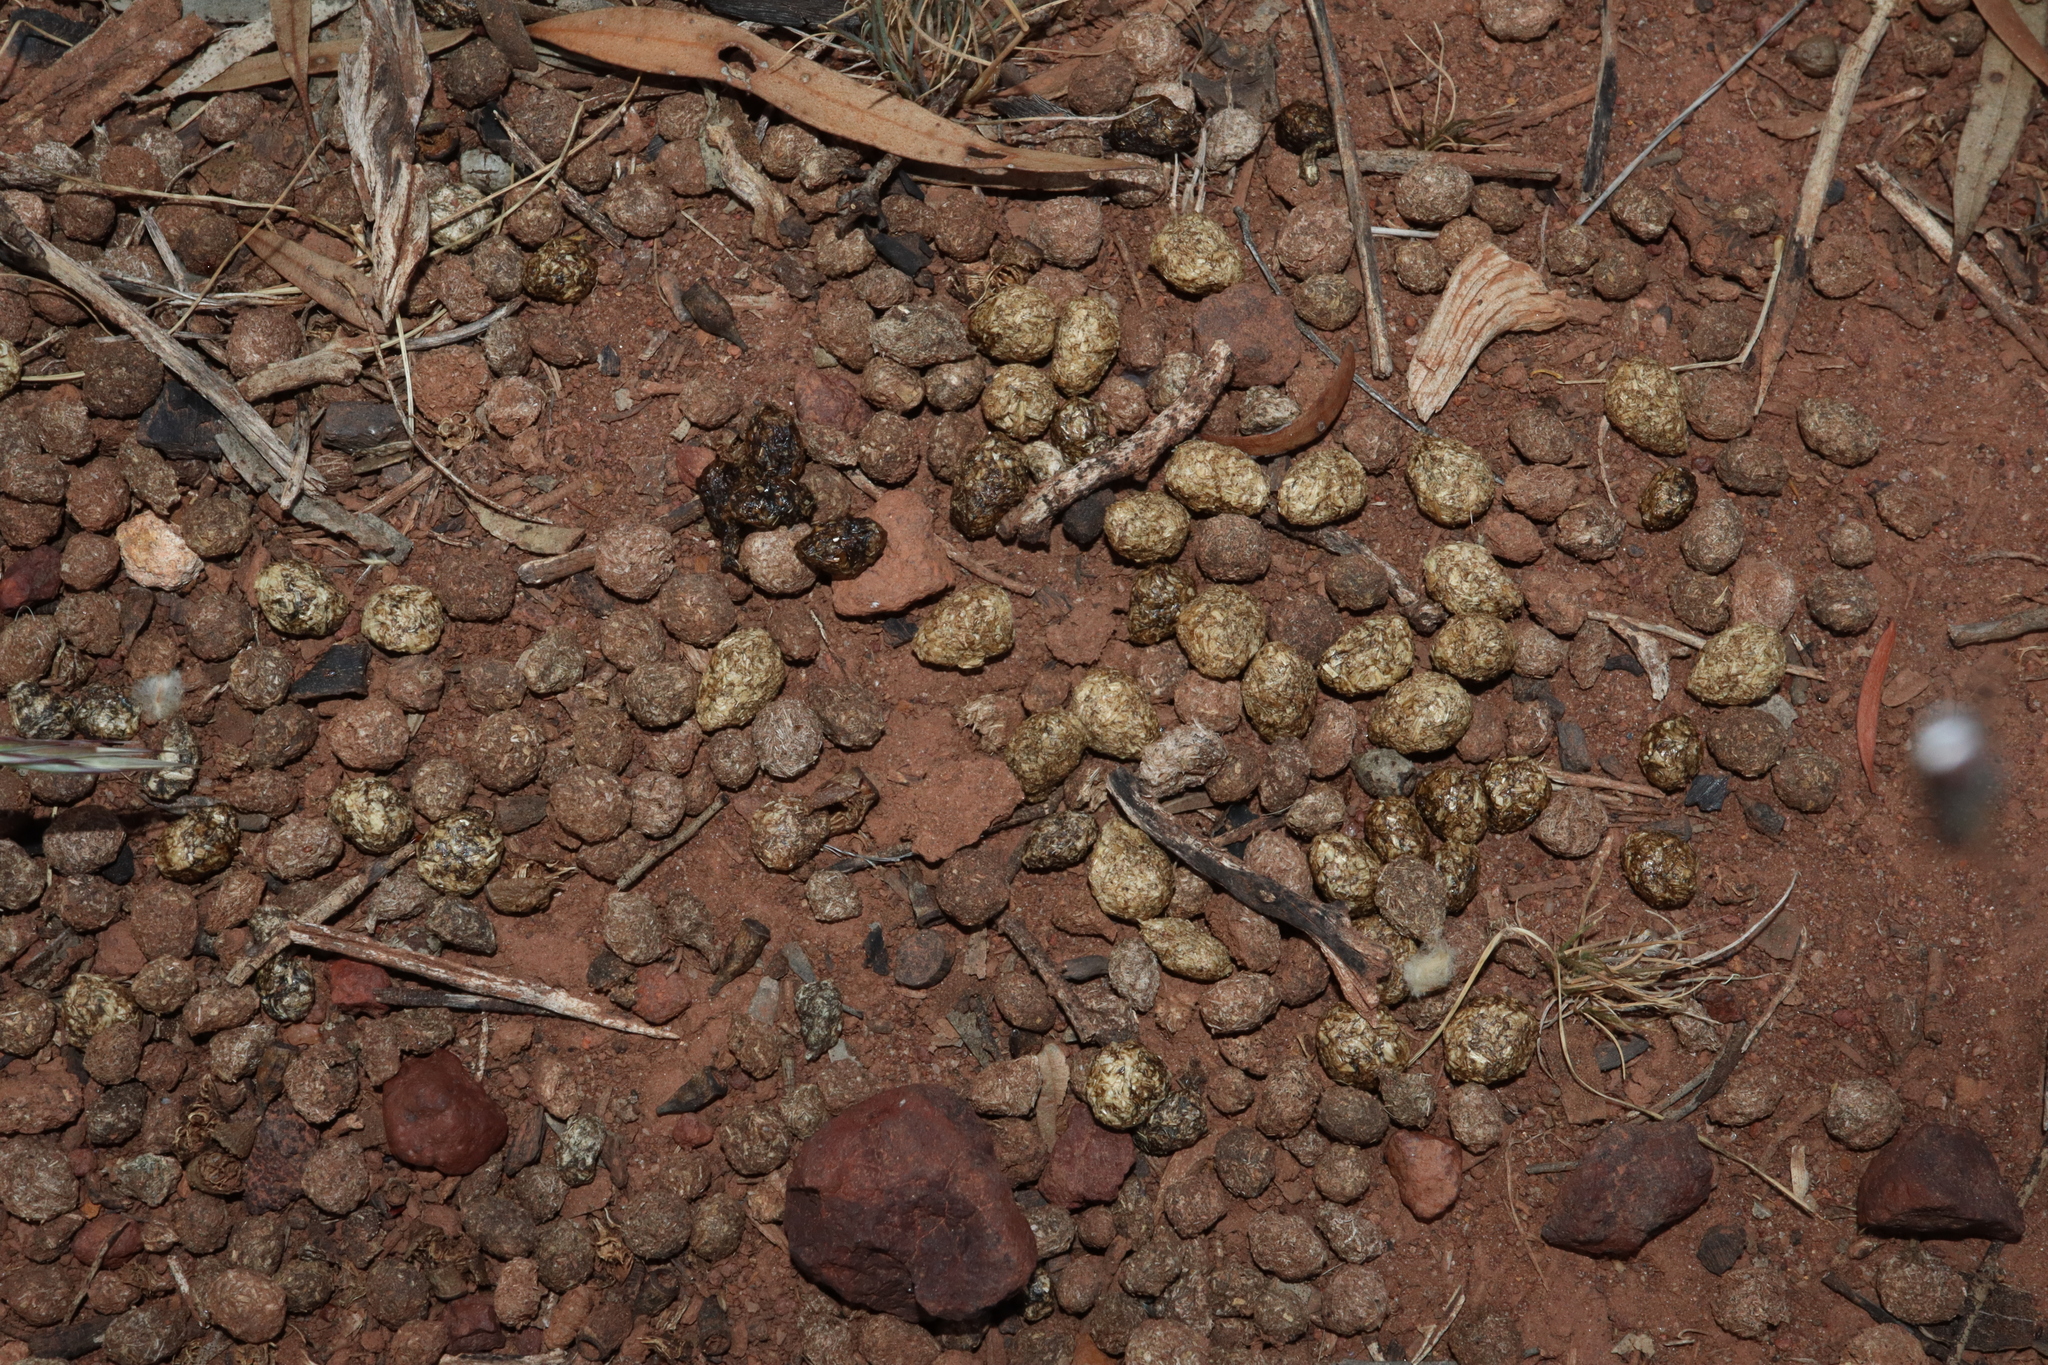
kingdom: Animalia
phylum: Chordata
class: Mammalia
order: Lagomorpha
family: Leporidae
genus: Oryctolagus
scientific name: Oryctolagus cuniculus
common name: European rabbit
